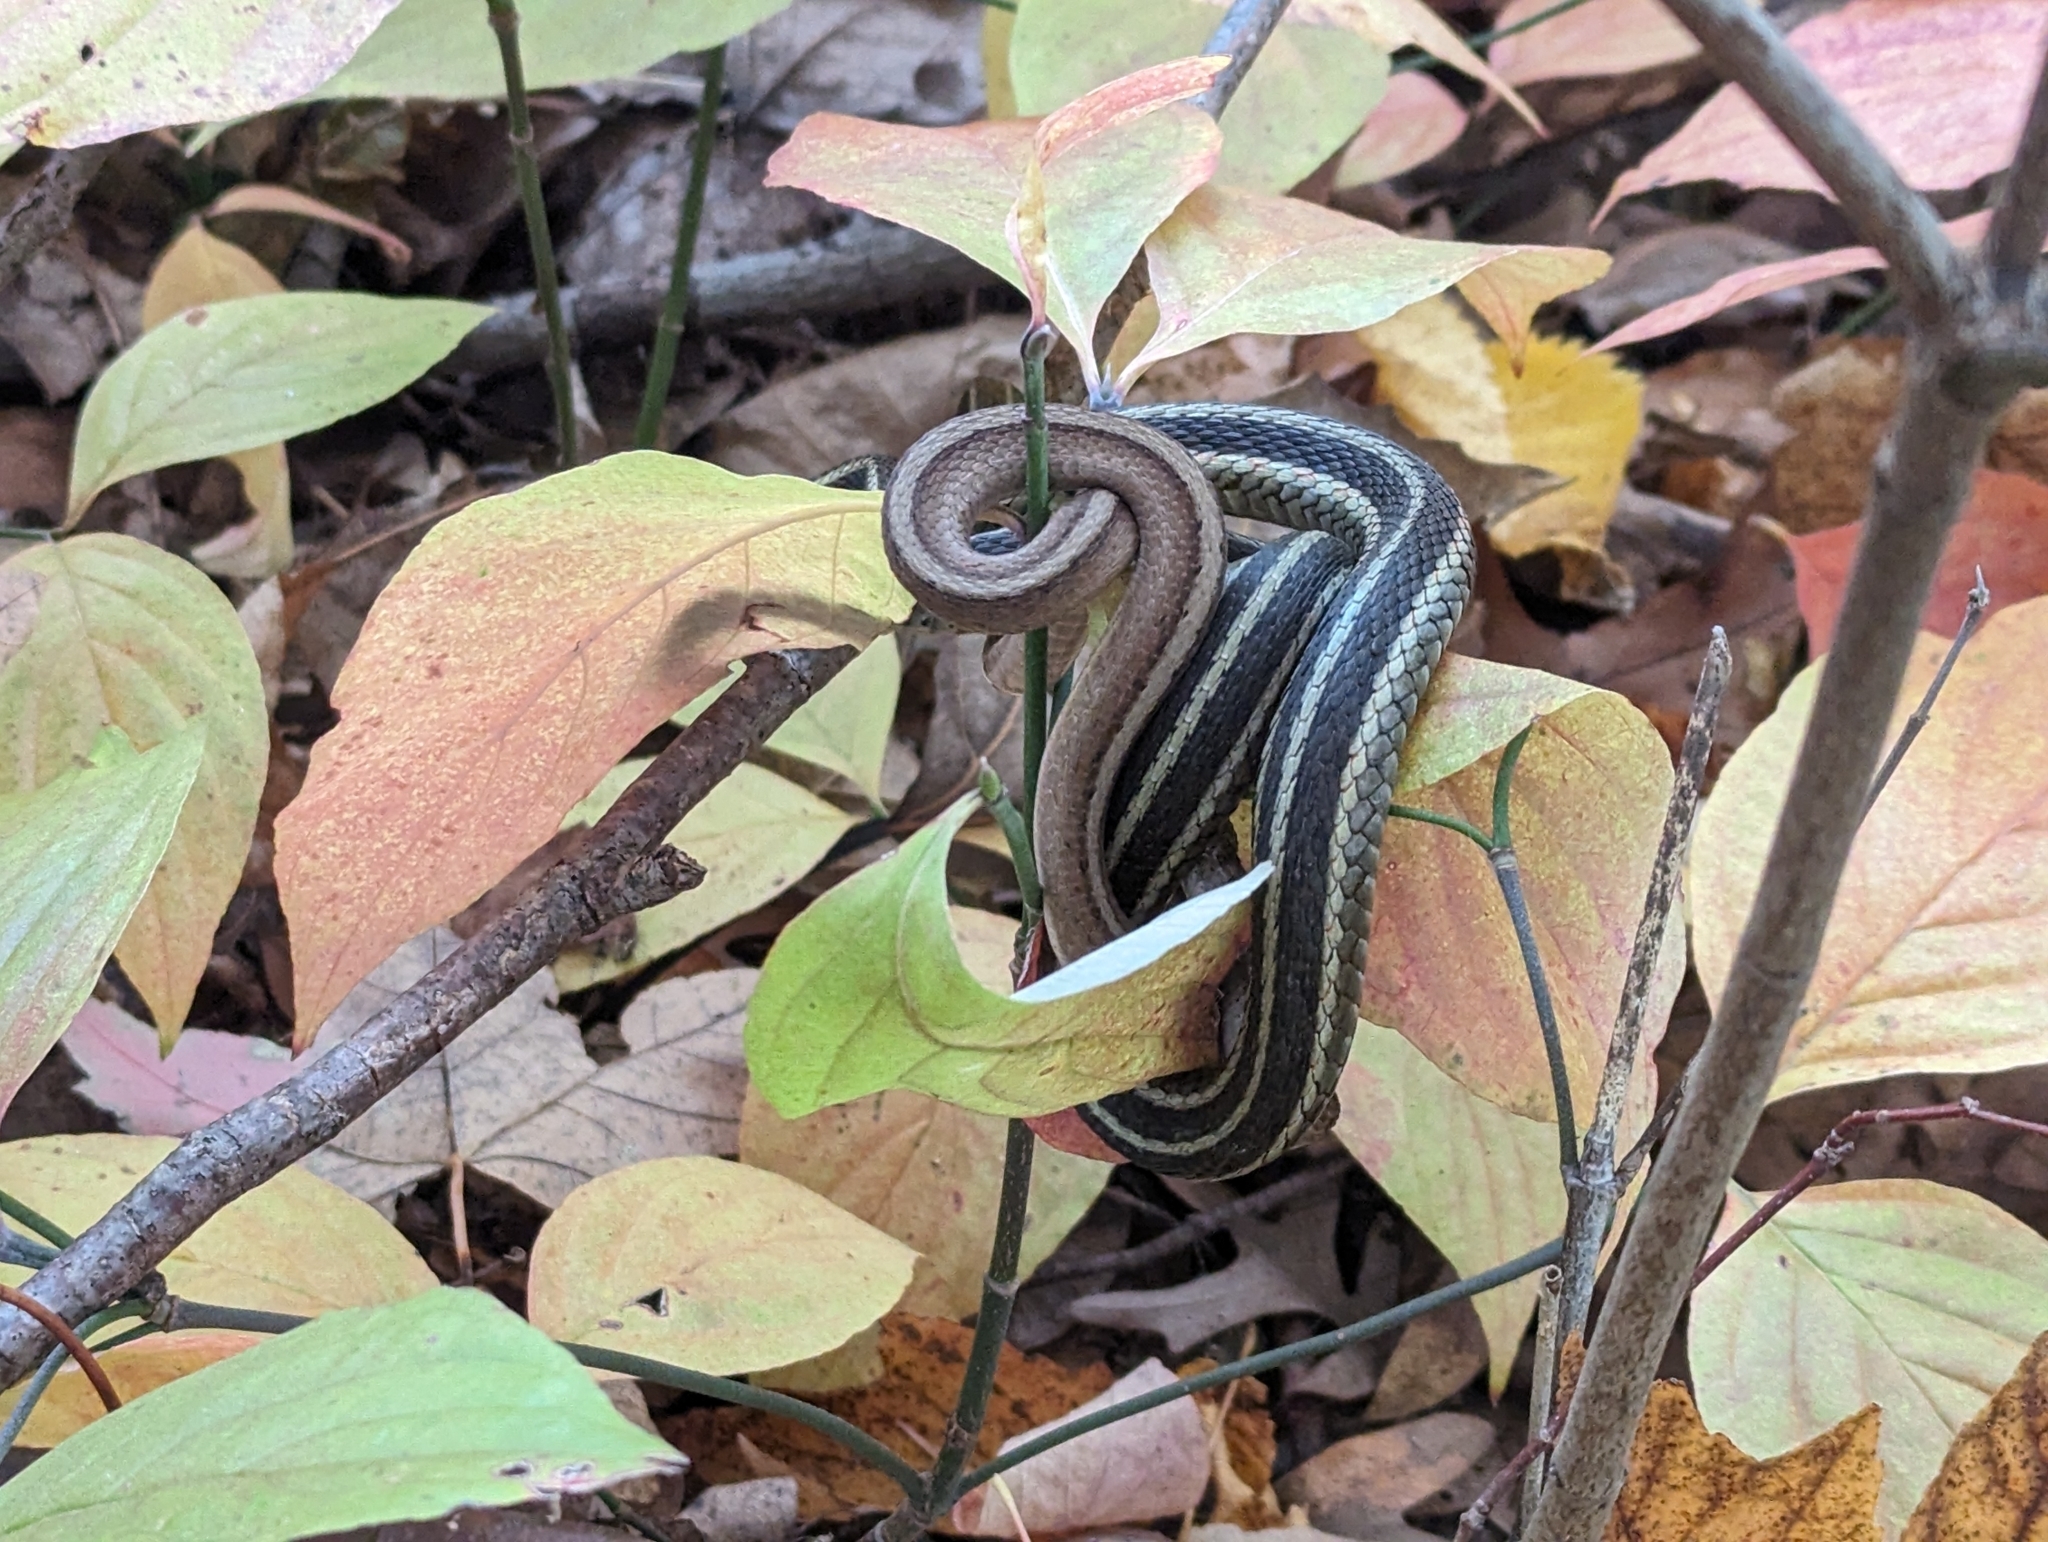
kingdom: Animalia
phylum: Chordata
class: Squamata
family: Colubridae
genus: Thamnophis
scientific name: Thamnophis sirtalis
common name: Common garter snake
